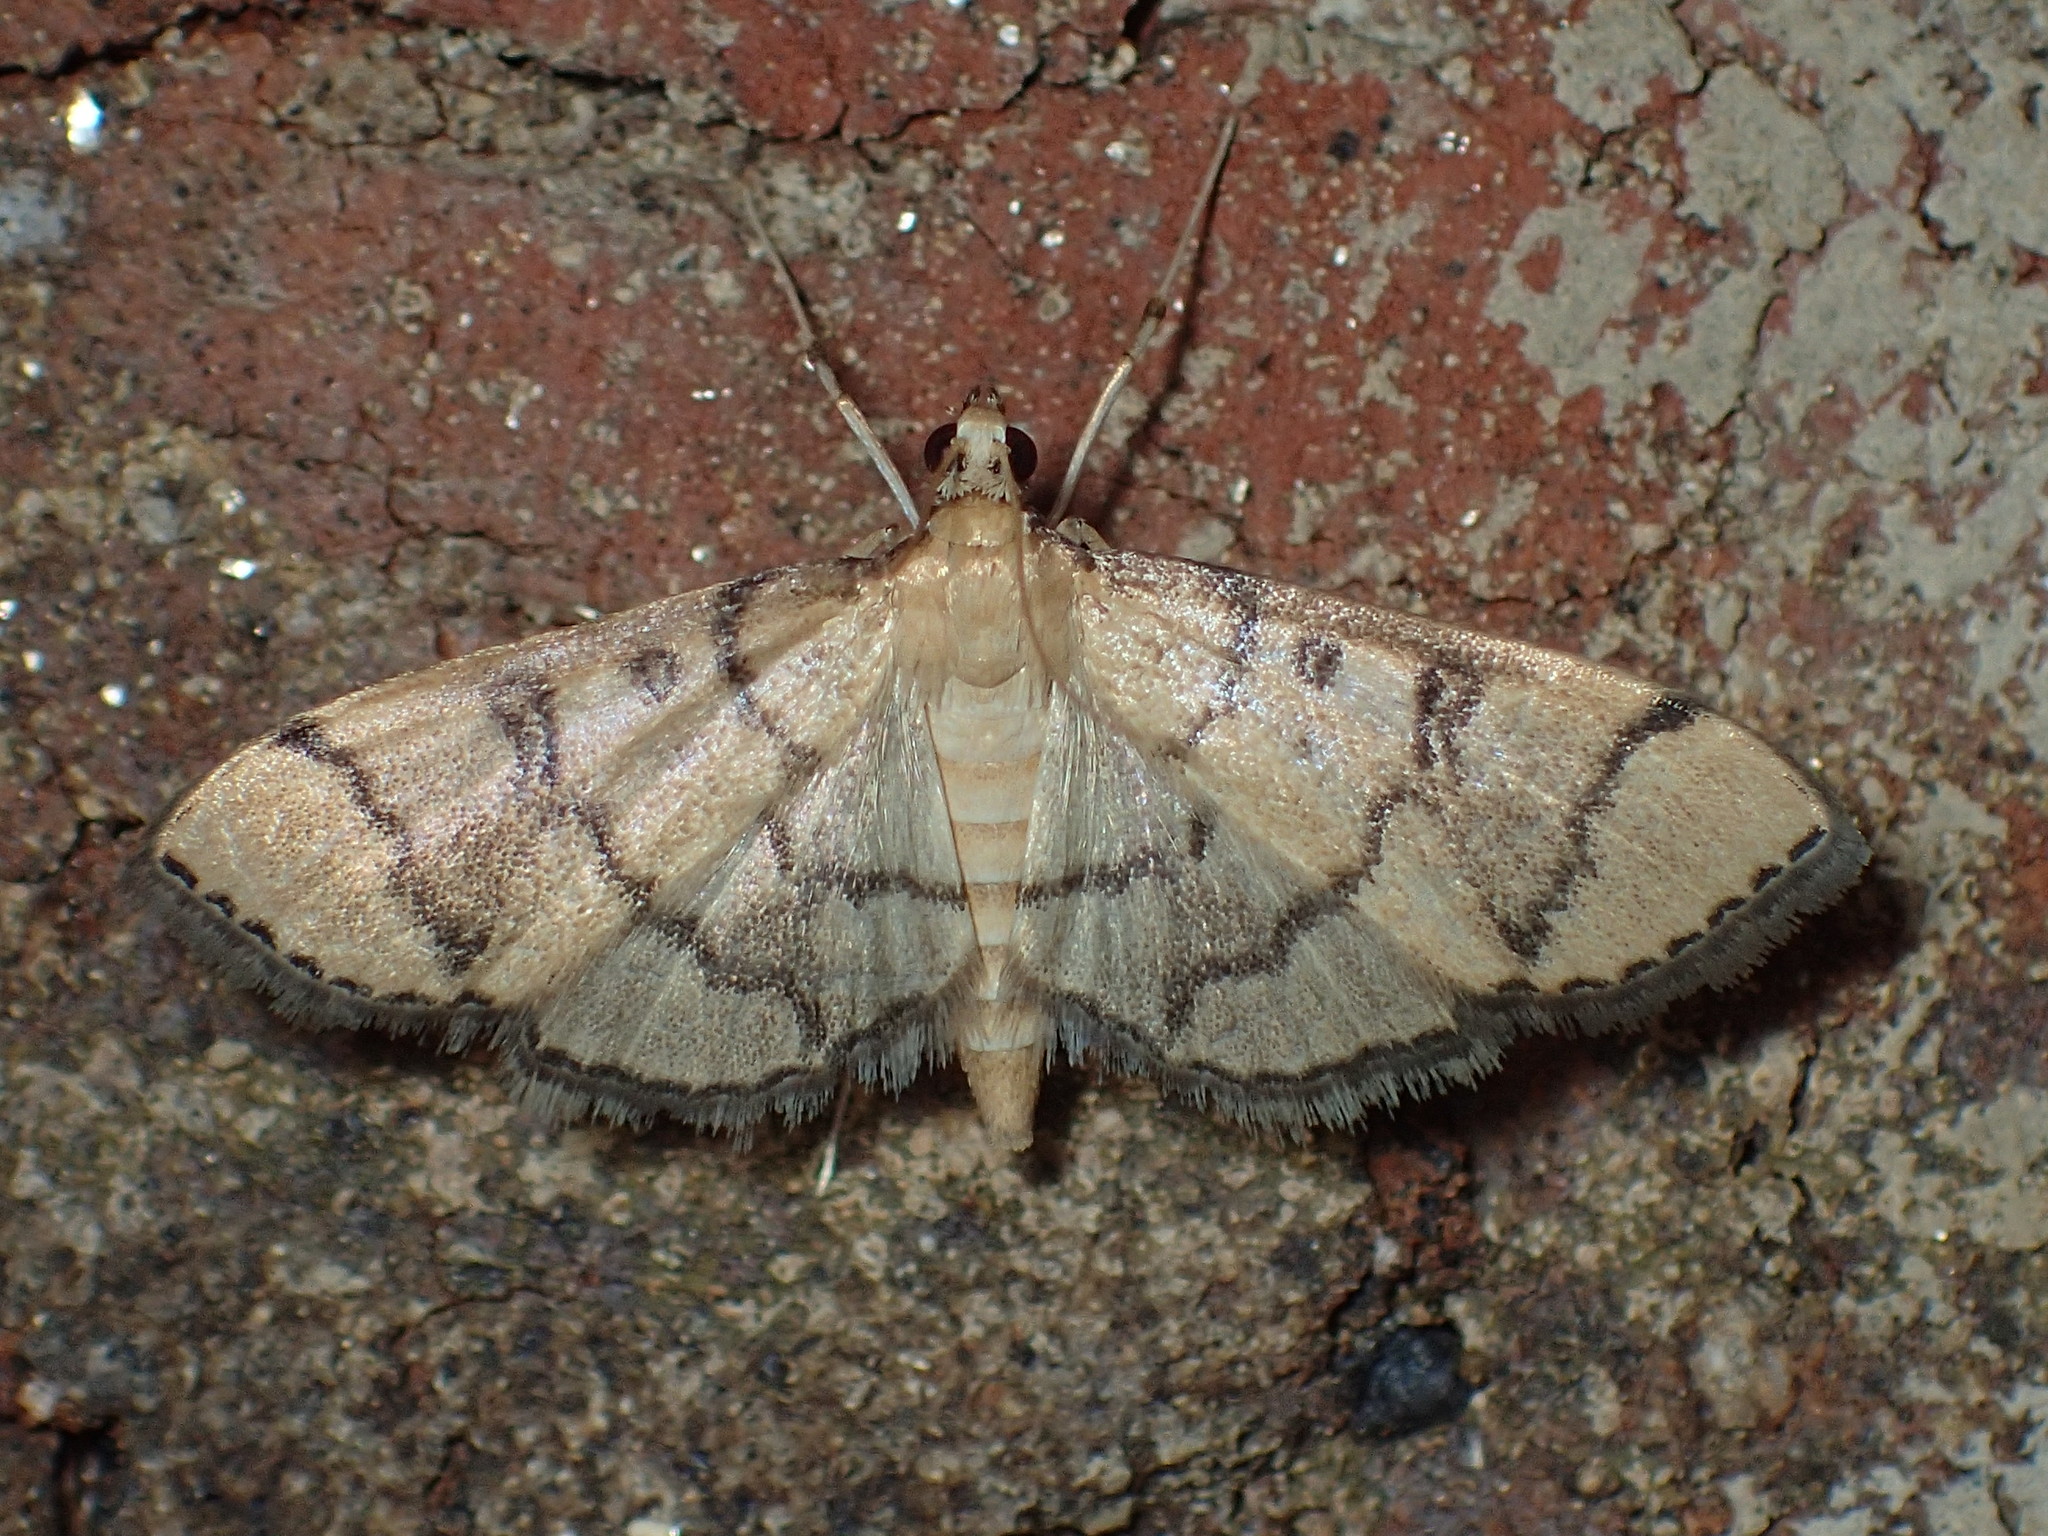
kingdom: Animalia
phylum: Arthropoda
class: Insecta
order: Lepidoptera
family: Crambidae
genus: Lamprosema
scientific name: Lamprosema Blepharomastix ranalis
